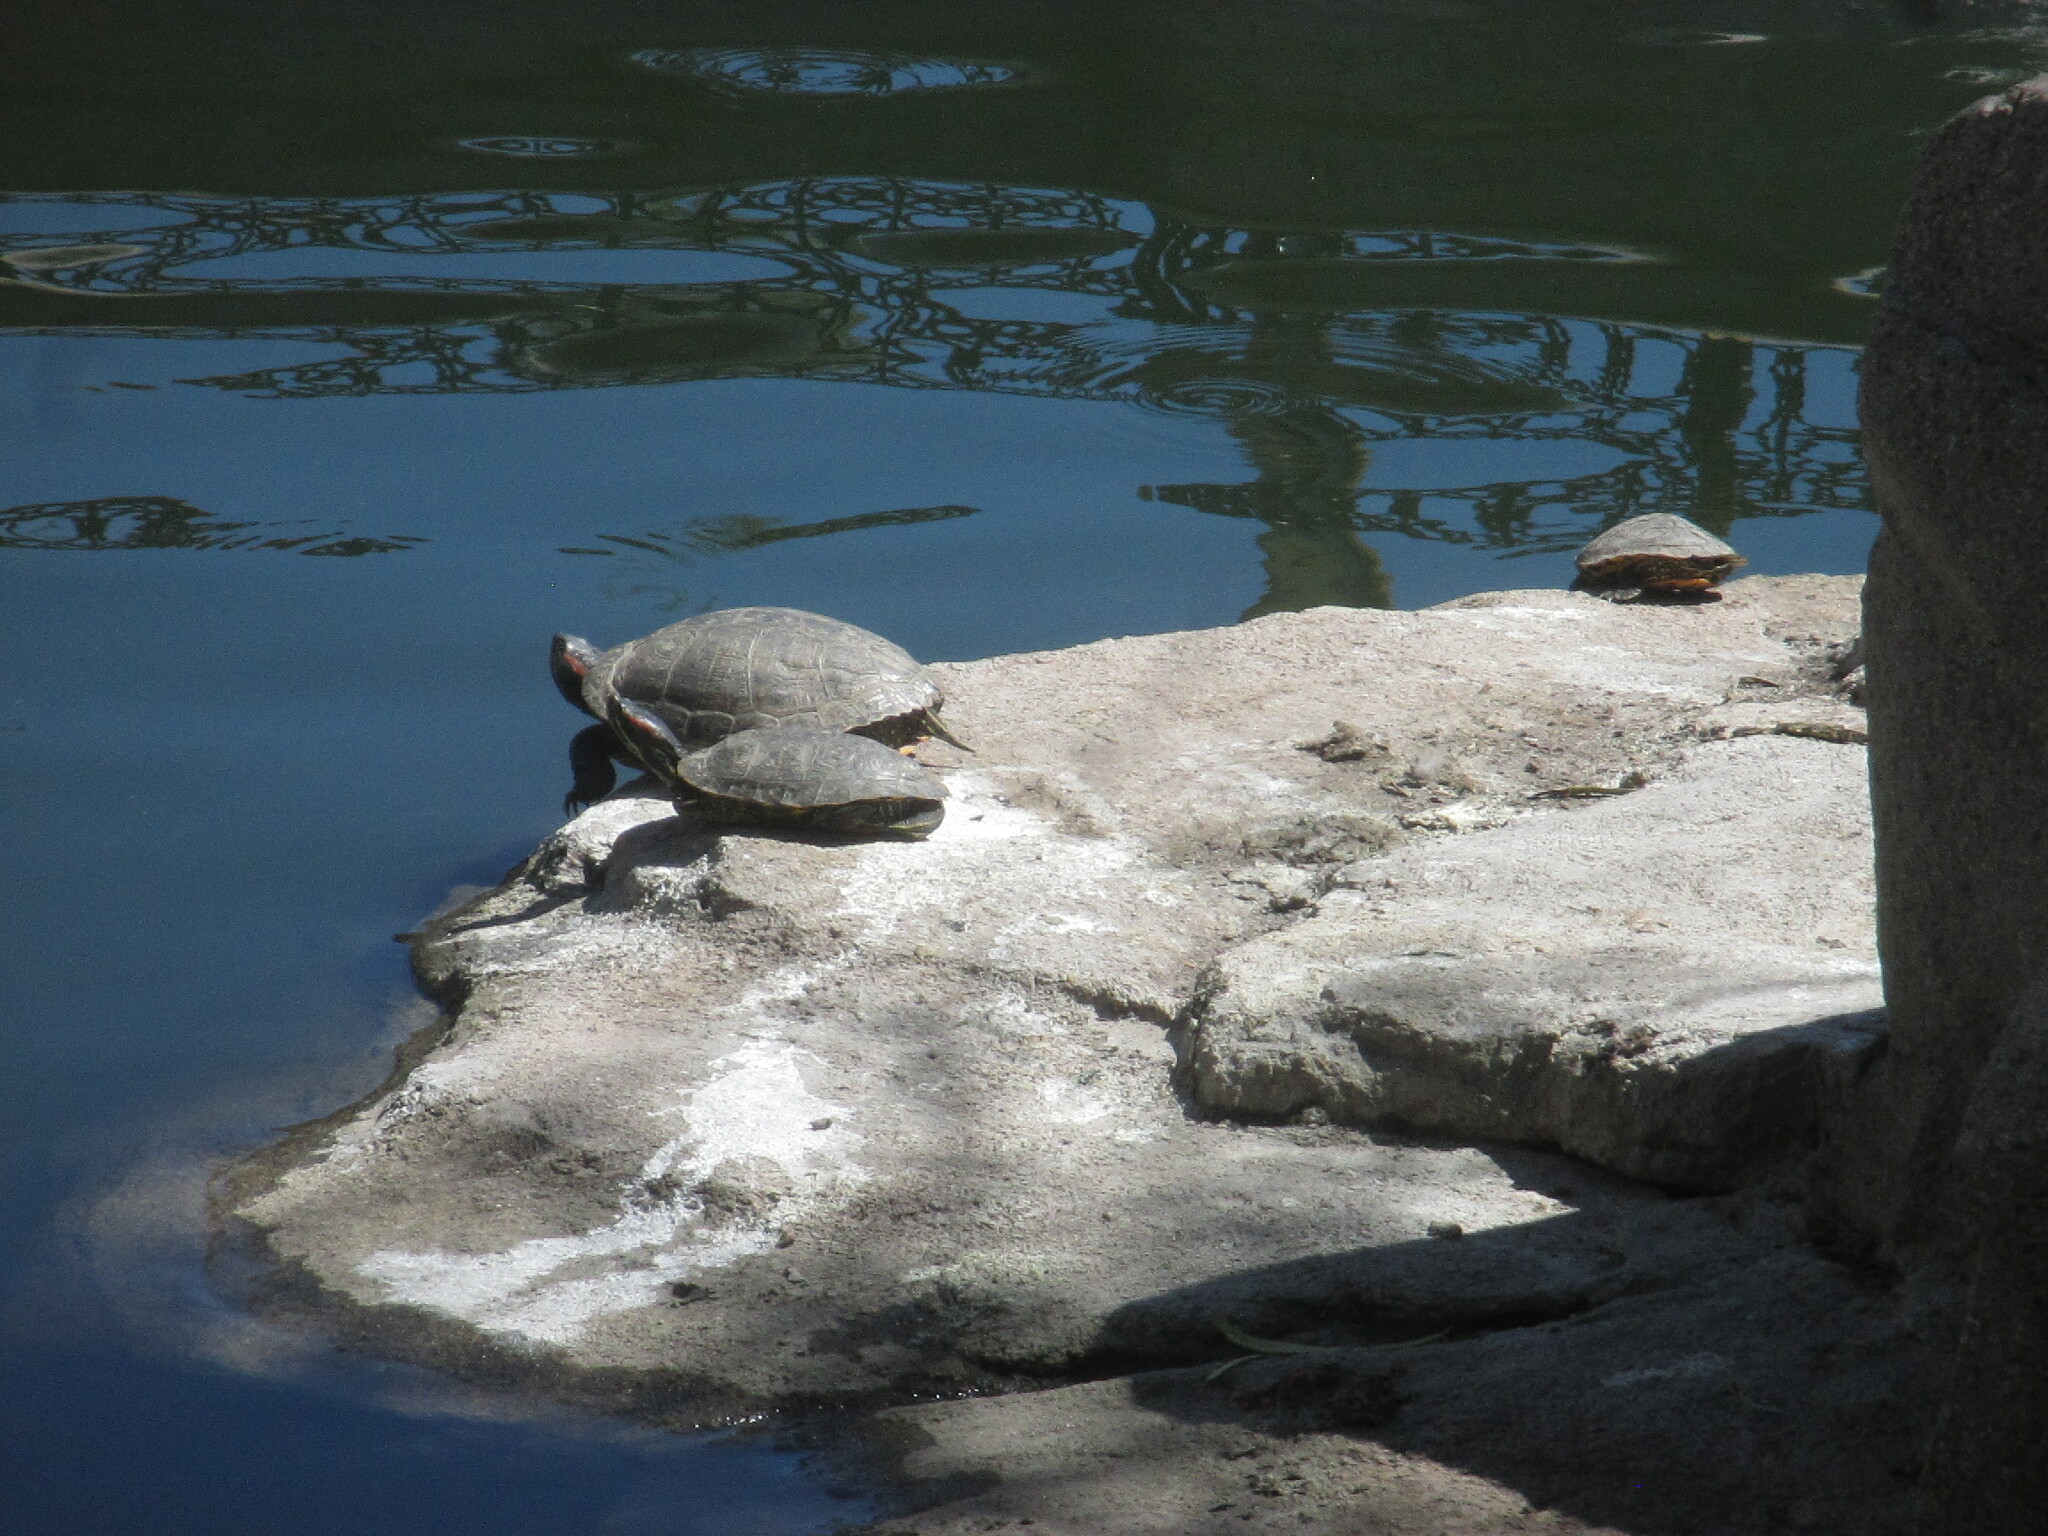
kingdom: Animalia
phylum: Chordata
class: Testudines
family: Emydidae
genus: Trachemys
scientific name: Trachemys scripta
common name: Slider
